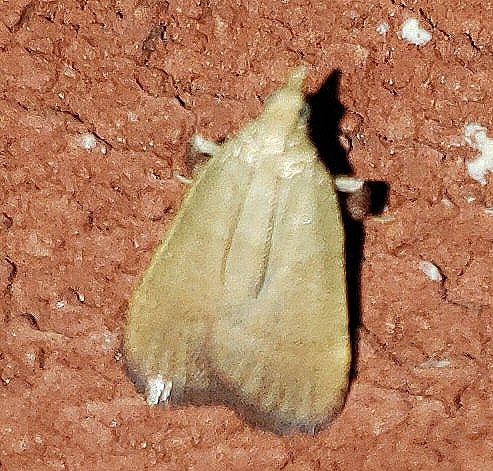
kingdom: Animalia
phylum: Arthropoda
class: Insecta
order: Lepidoptera
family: Pyralidae
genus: Condylolomia
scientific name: Condylolomia participialis
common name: Drab condylolomia moth
